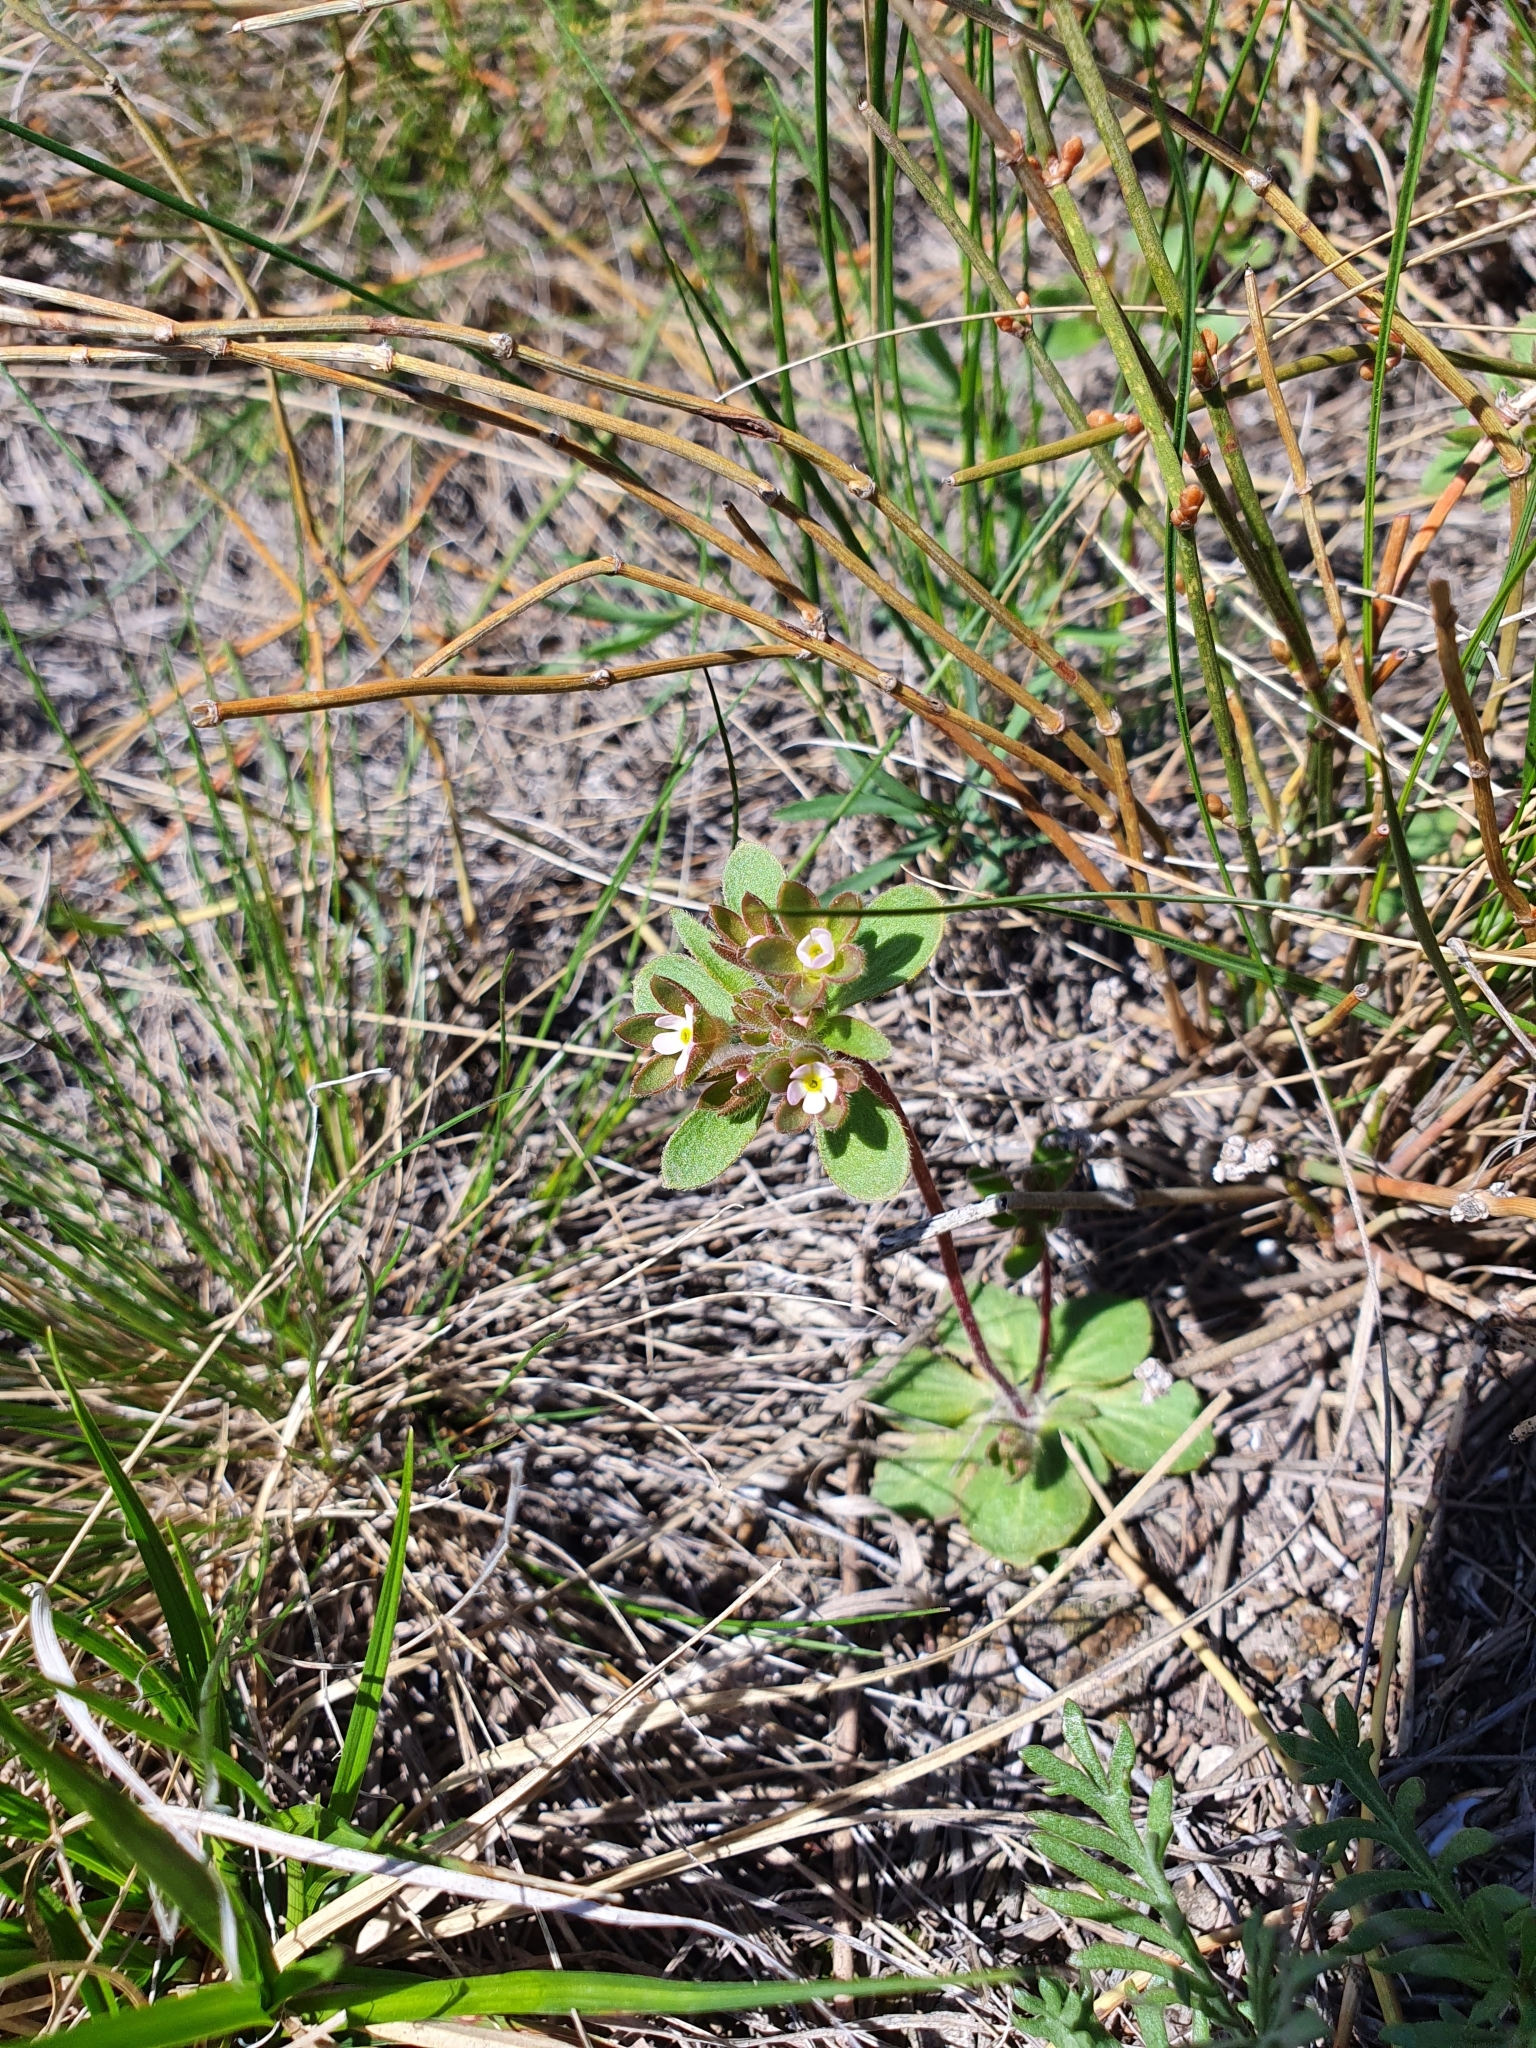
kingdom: Plantae
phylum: Tracheophyta
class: Magnoliopsida
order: Ericales
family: Primulaceae
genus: Androsace
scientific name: Androsace maxima
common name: Annual androsace
